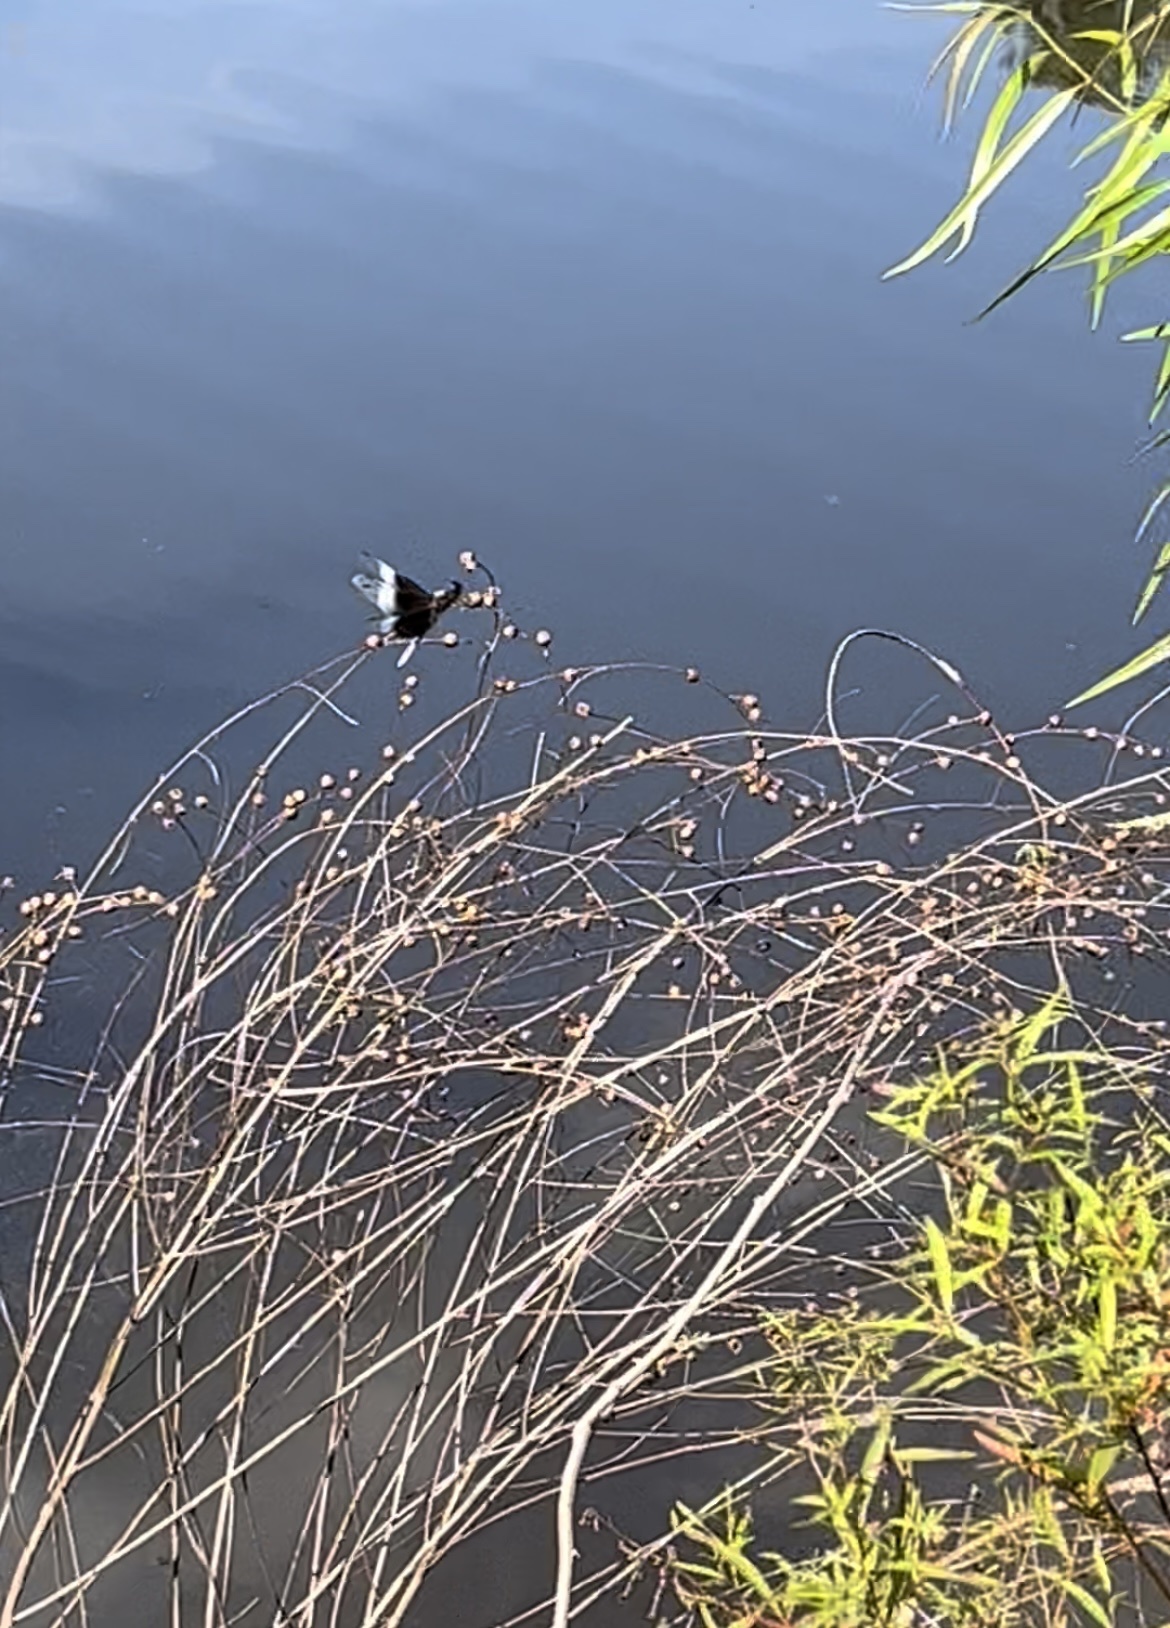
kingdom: Animalia
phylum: Arthropoda
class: Insecta
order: Odonata
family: Libellulidae
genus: Libellula
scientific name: Libellula luctuosa
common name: Widow skimmer
